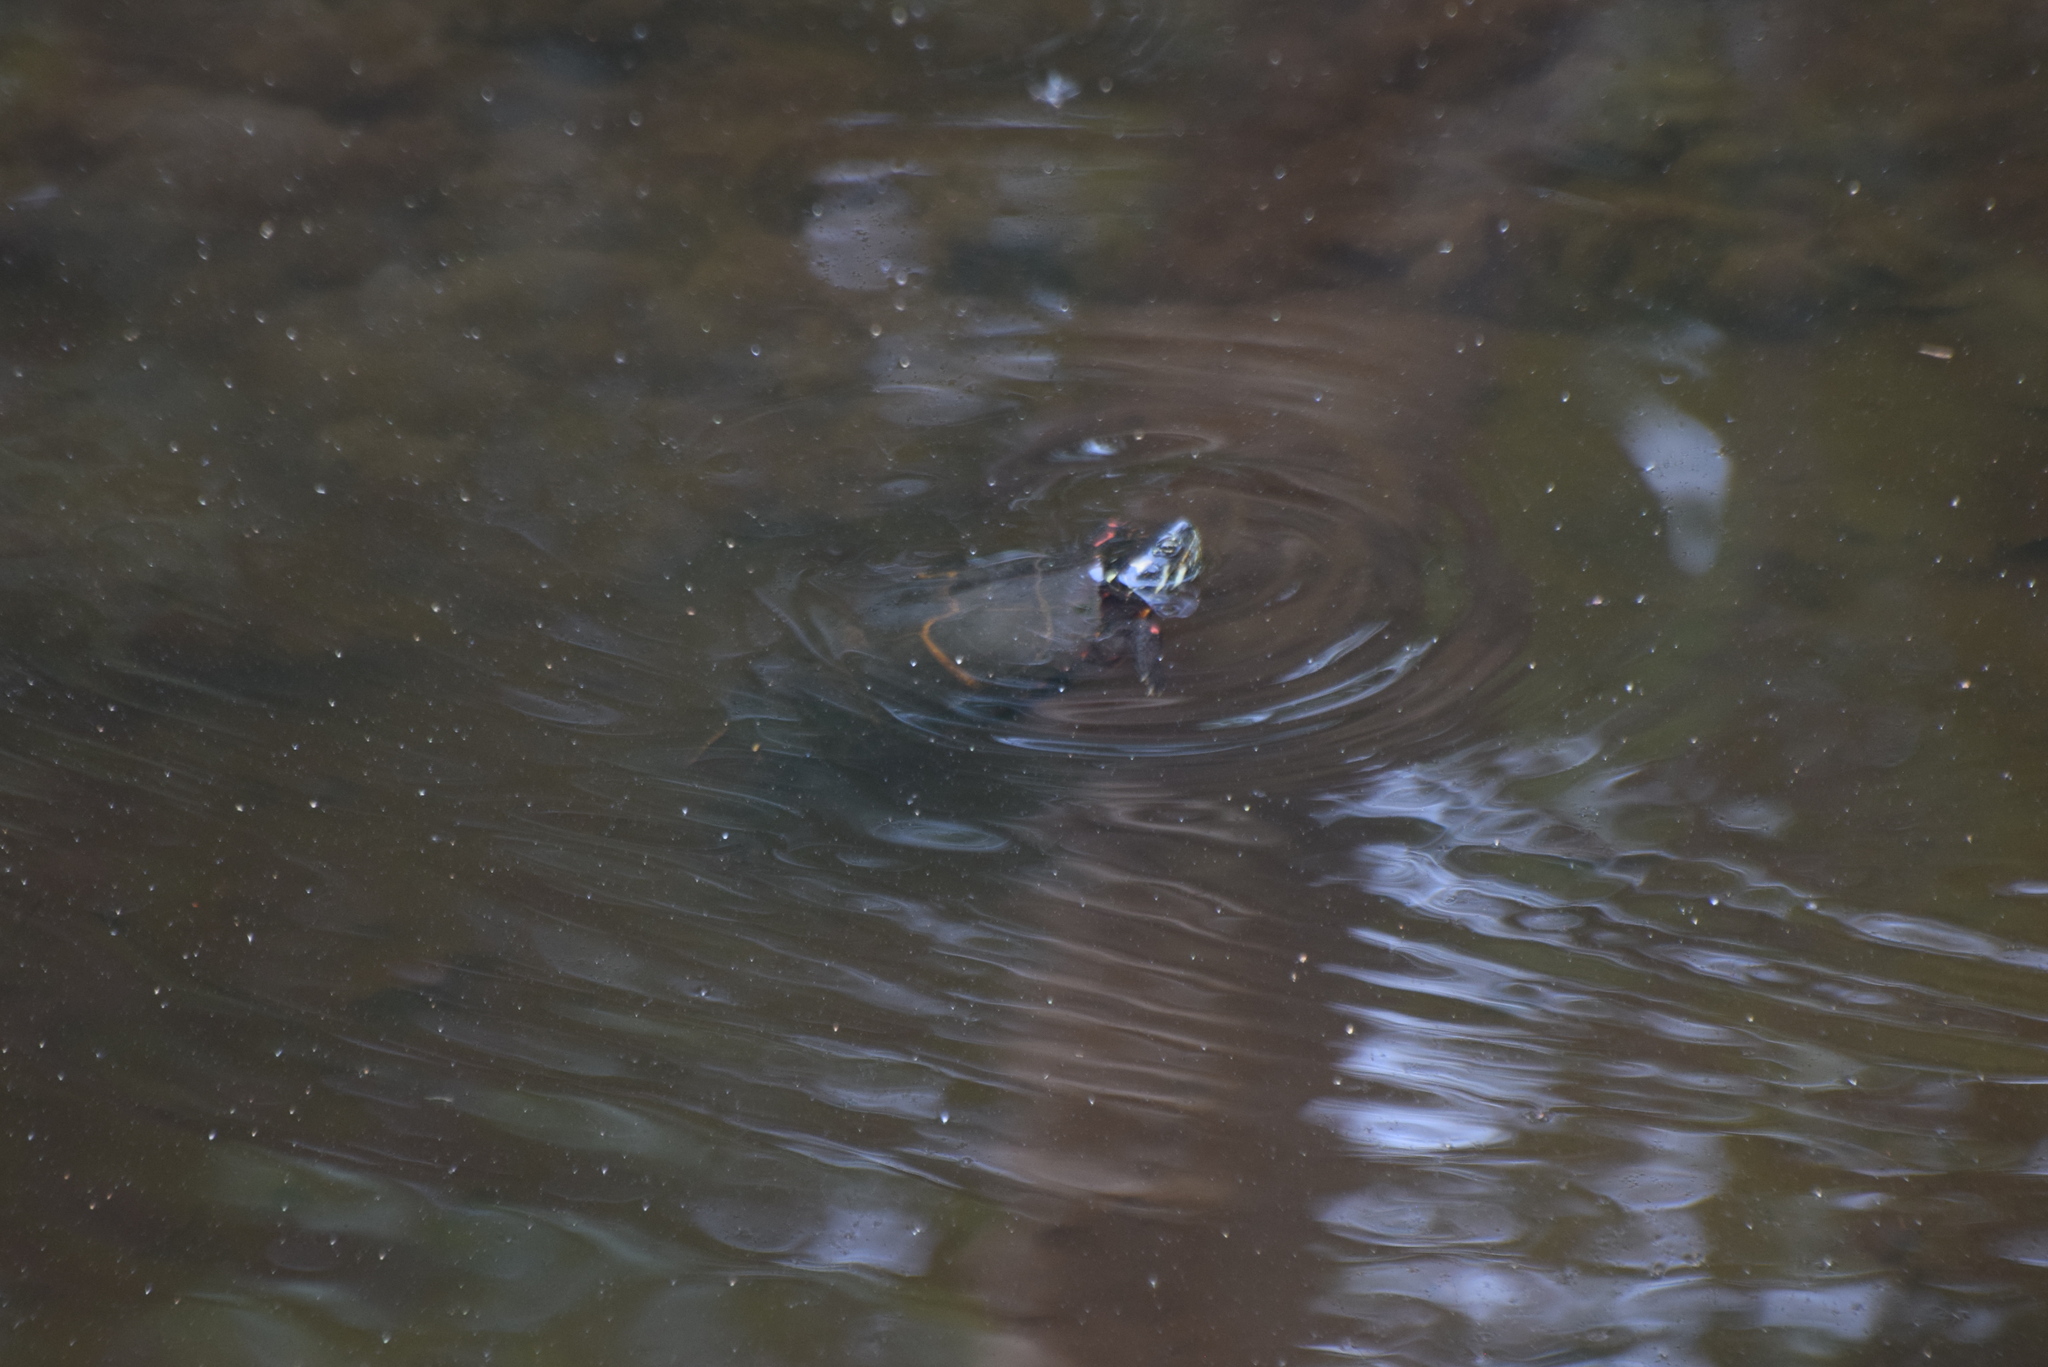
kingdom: Animalia
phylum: Chordata
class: Testudines
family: Emydidae
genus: Chrysemys
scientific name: Chrysemys picta
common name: Painted turtle
